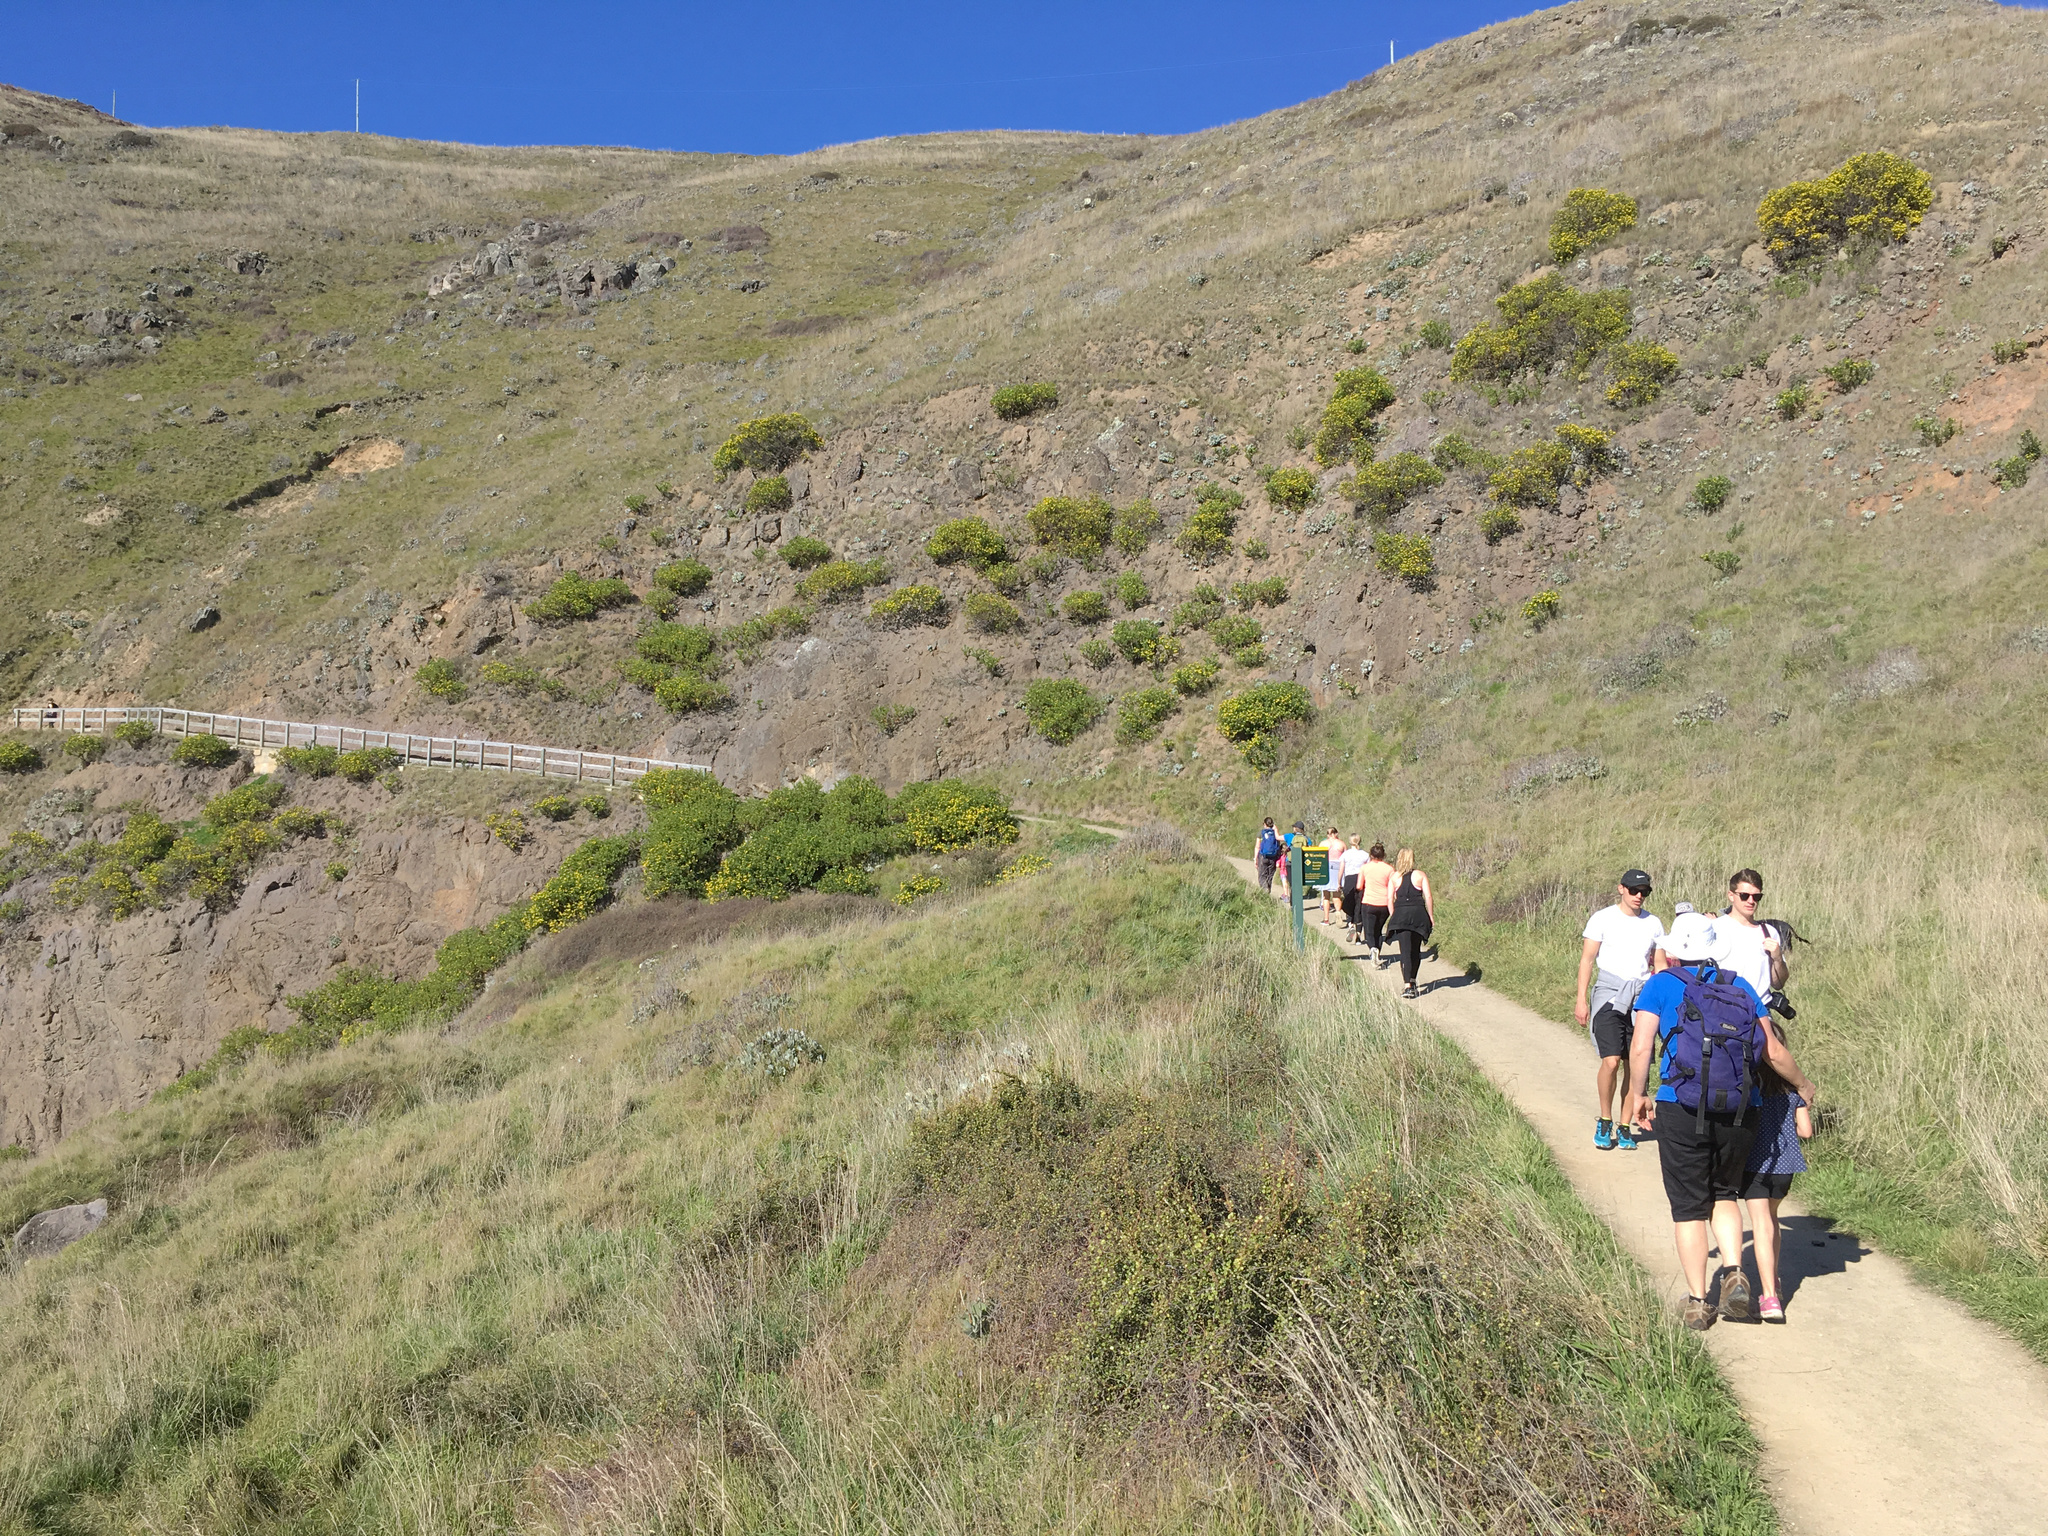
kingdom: Plantae
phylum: Tracheophyta
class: Magnoliopsida
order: Asterales
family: Asteraceae
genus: Osteospermum
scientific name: Osteospermum moniliferum
